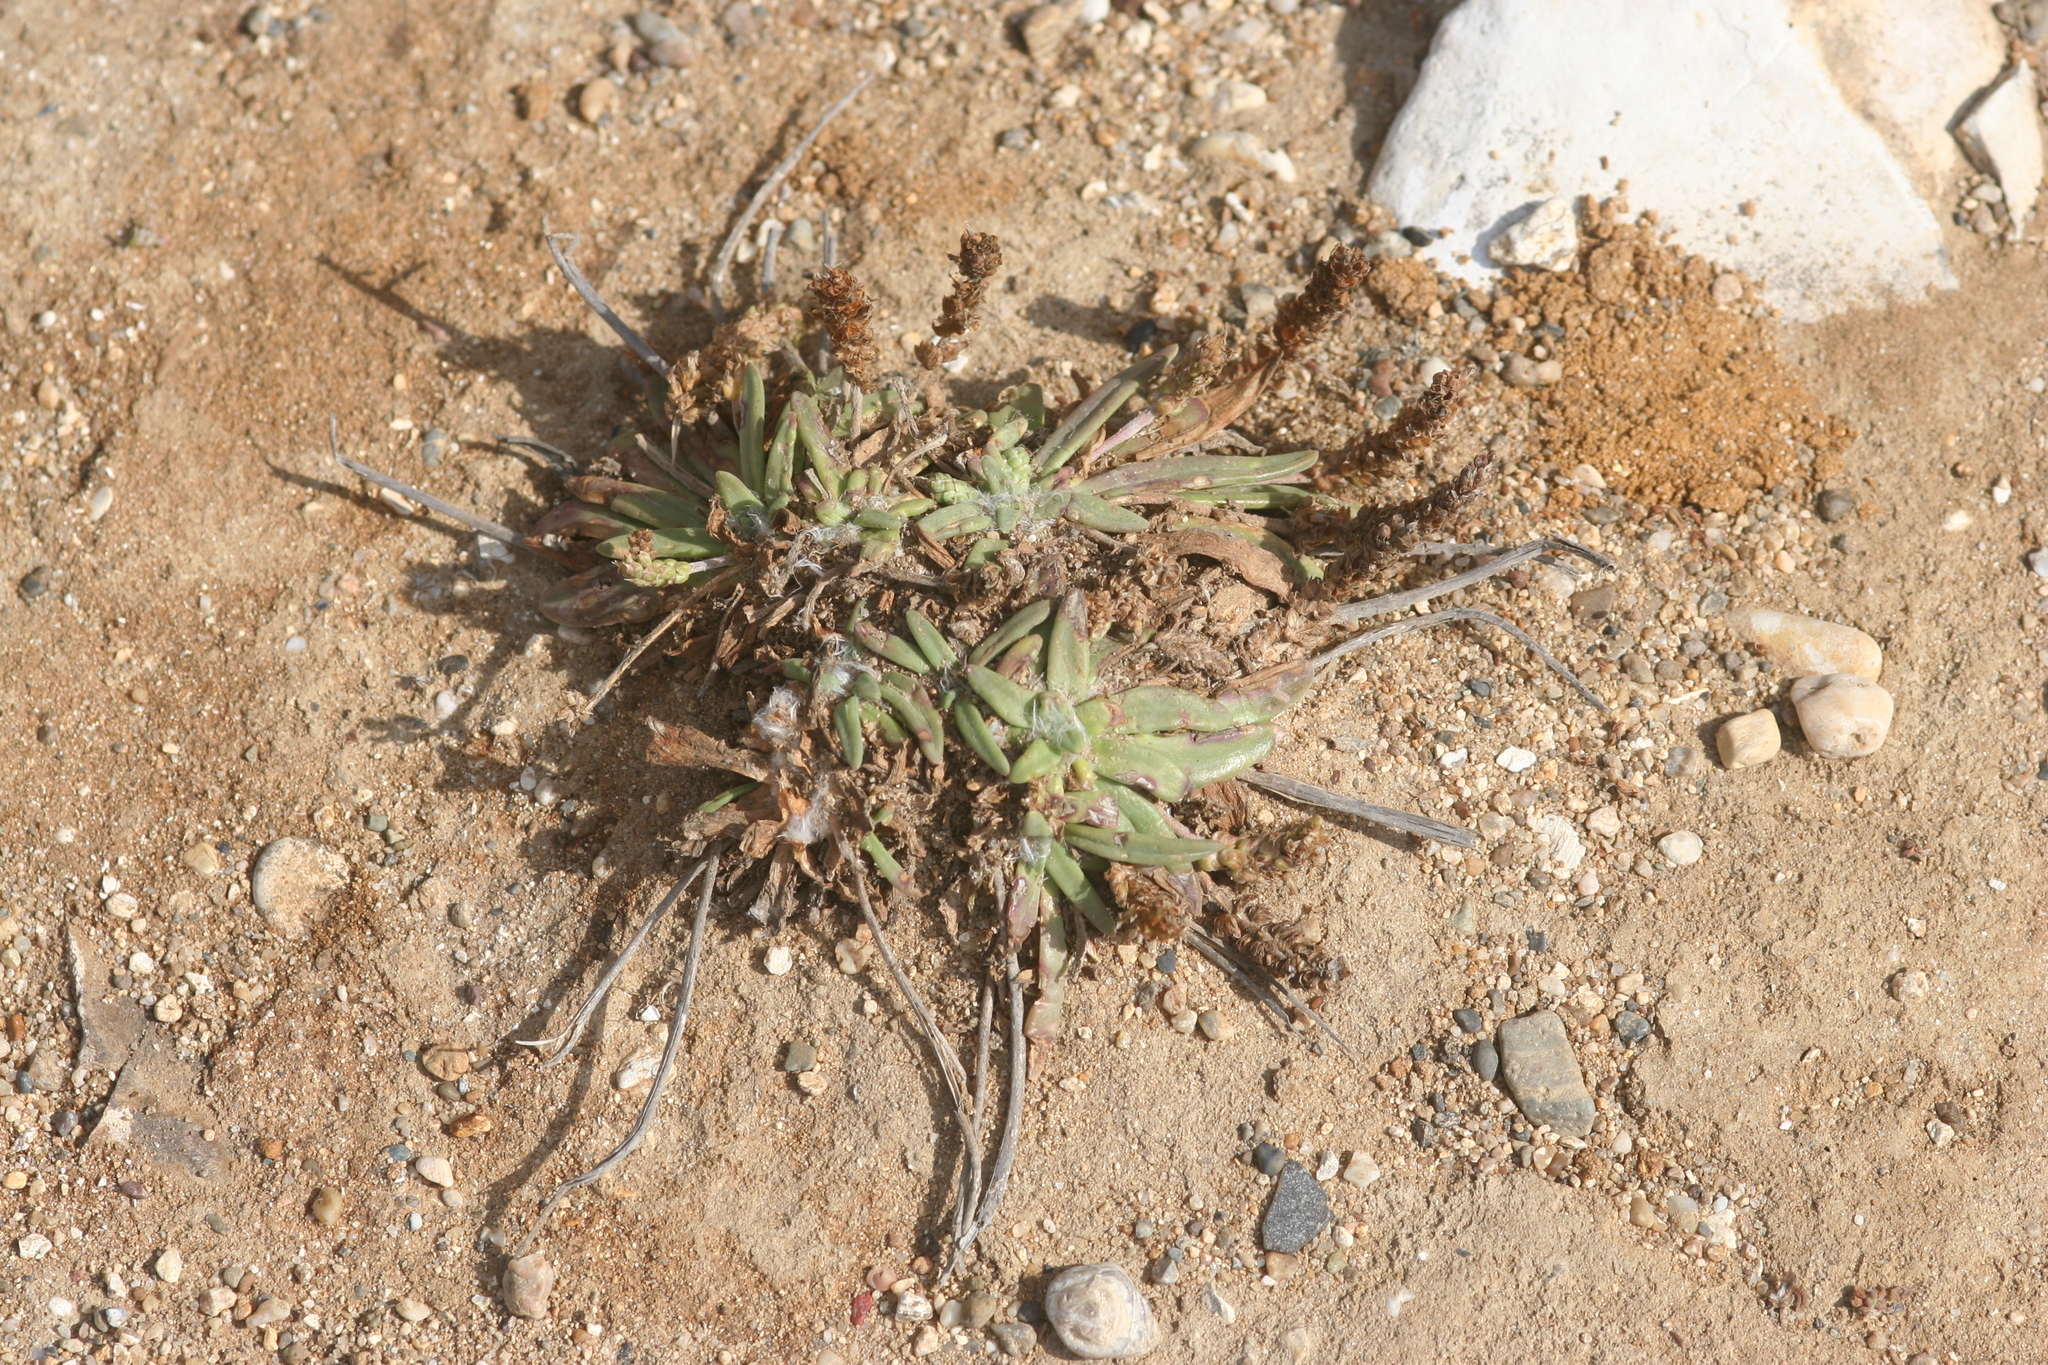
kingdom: Plantae
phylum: Tracheophyta
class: Magnoliopsida
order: Lamiales
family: Plantaginaceae
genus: Plantago
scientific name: Plantago maritima
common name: Sea plantain
